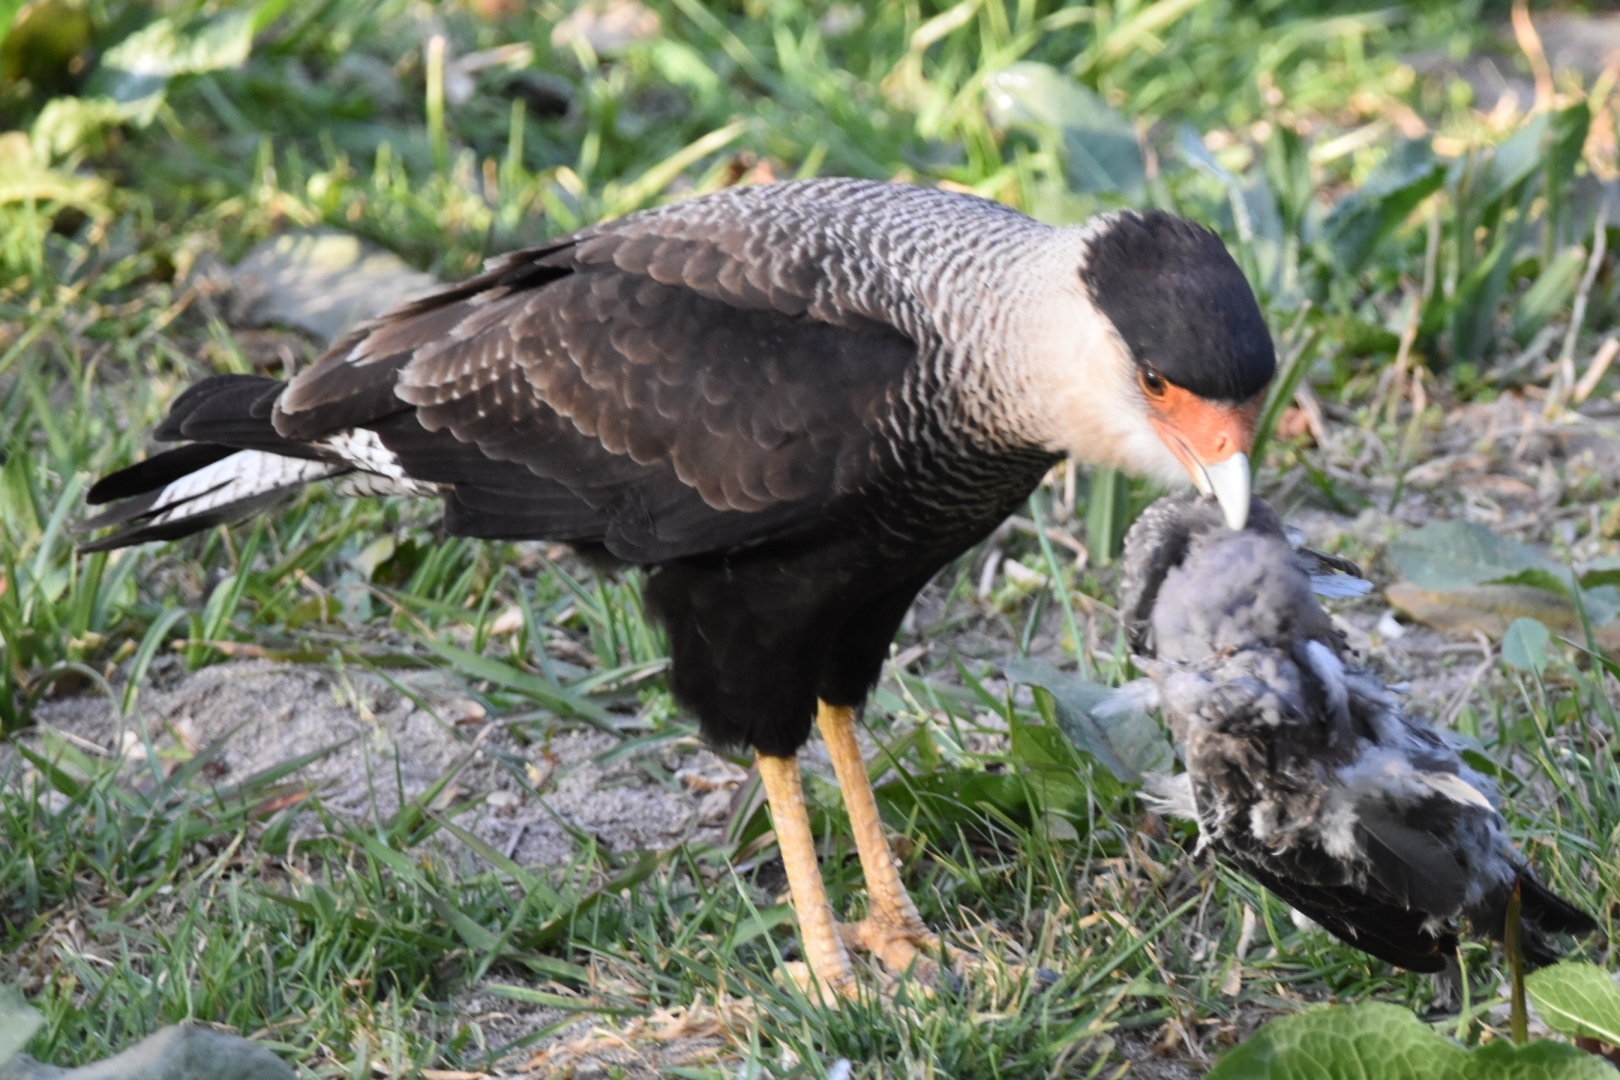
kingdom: Animalia
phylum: Chordata
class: Aves
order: Falconiformes
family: Falconidae
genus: Caracara
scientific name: Caracara plancus
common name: Southern caracara
